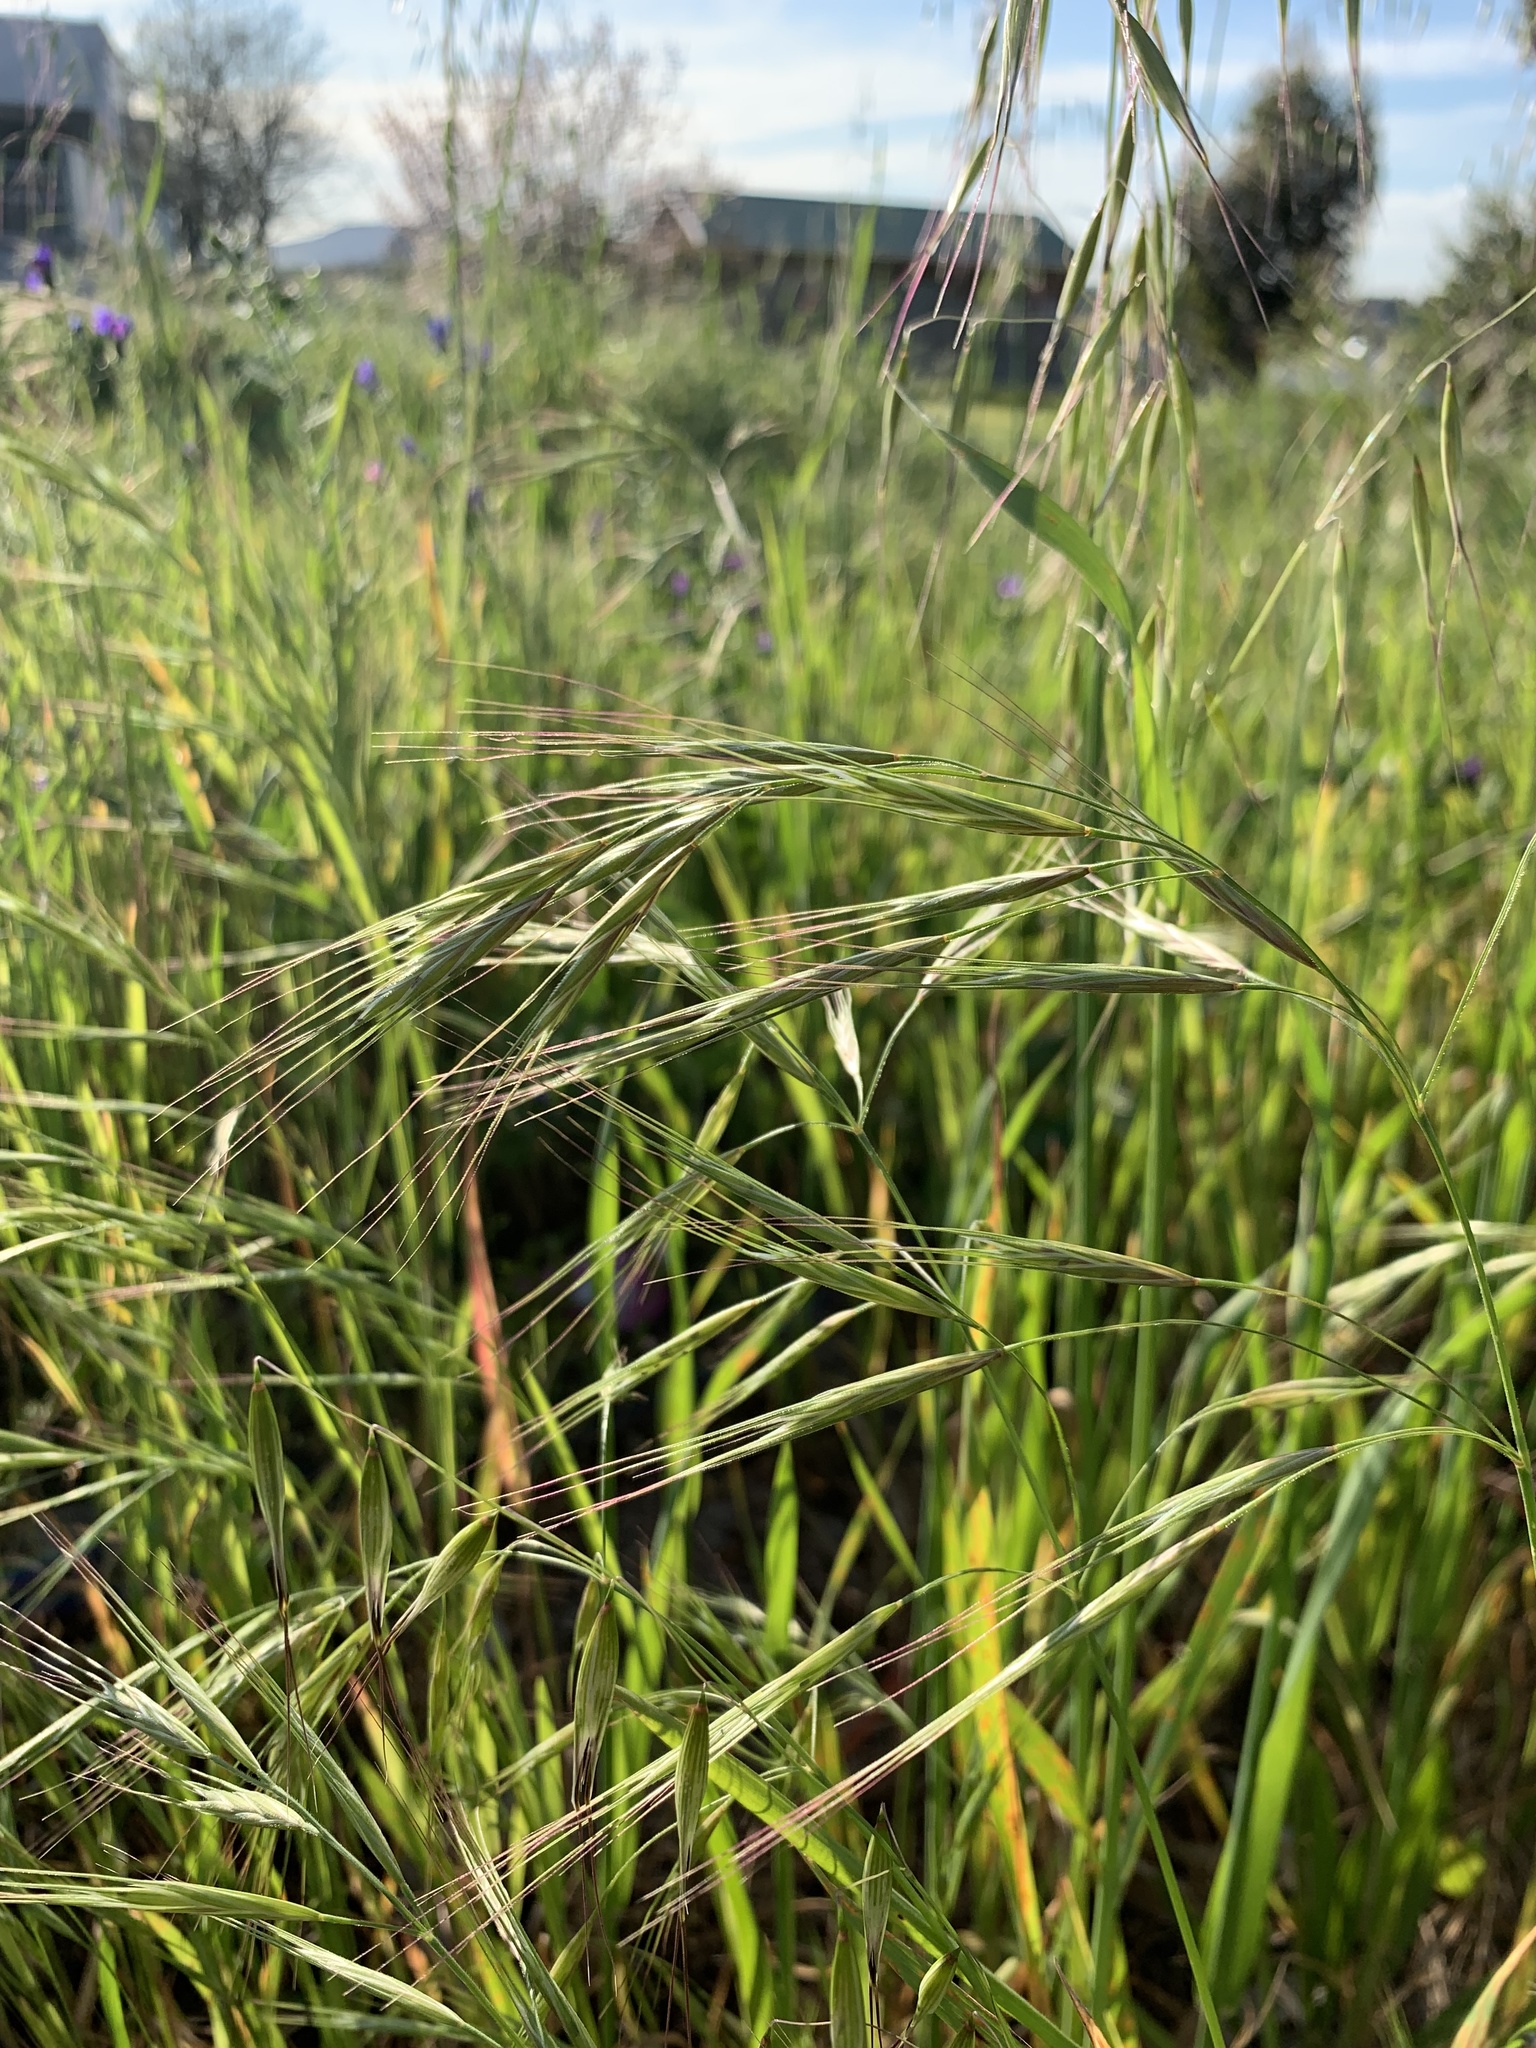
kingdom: Plantae
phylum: Tracheophyta
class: Liliopsida
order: Poales
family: Poaceae
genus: Bromus
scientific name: Bromus diandrus
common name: Ripgut brome
